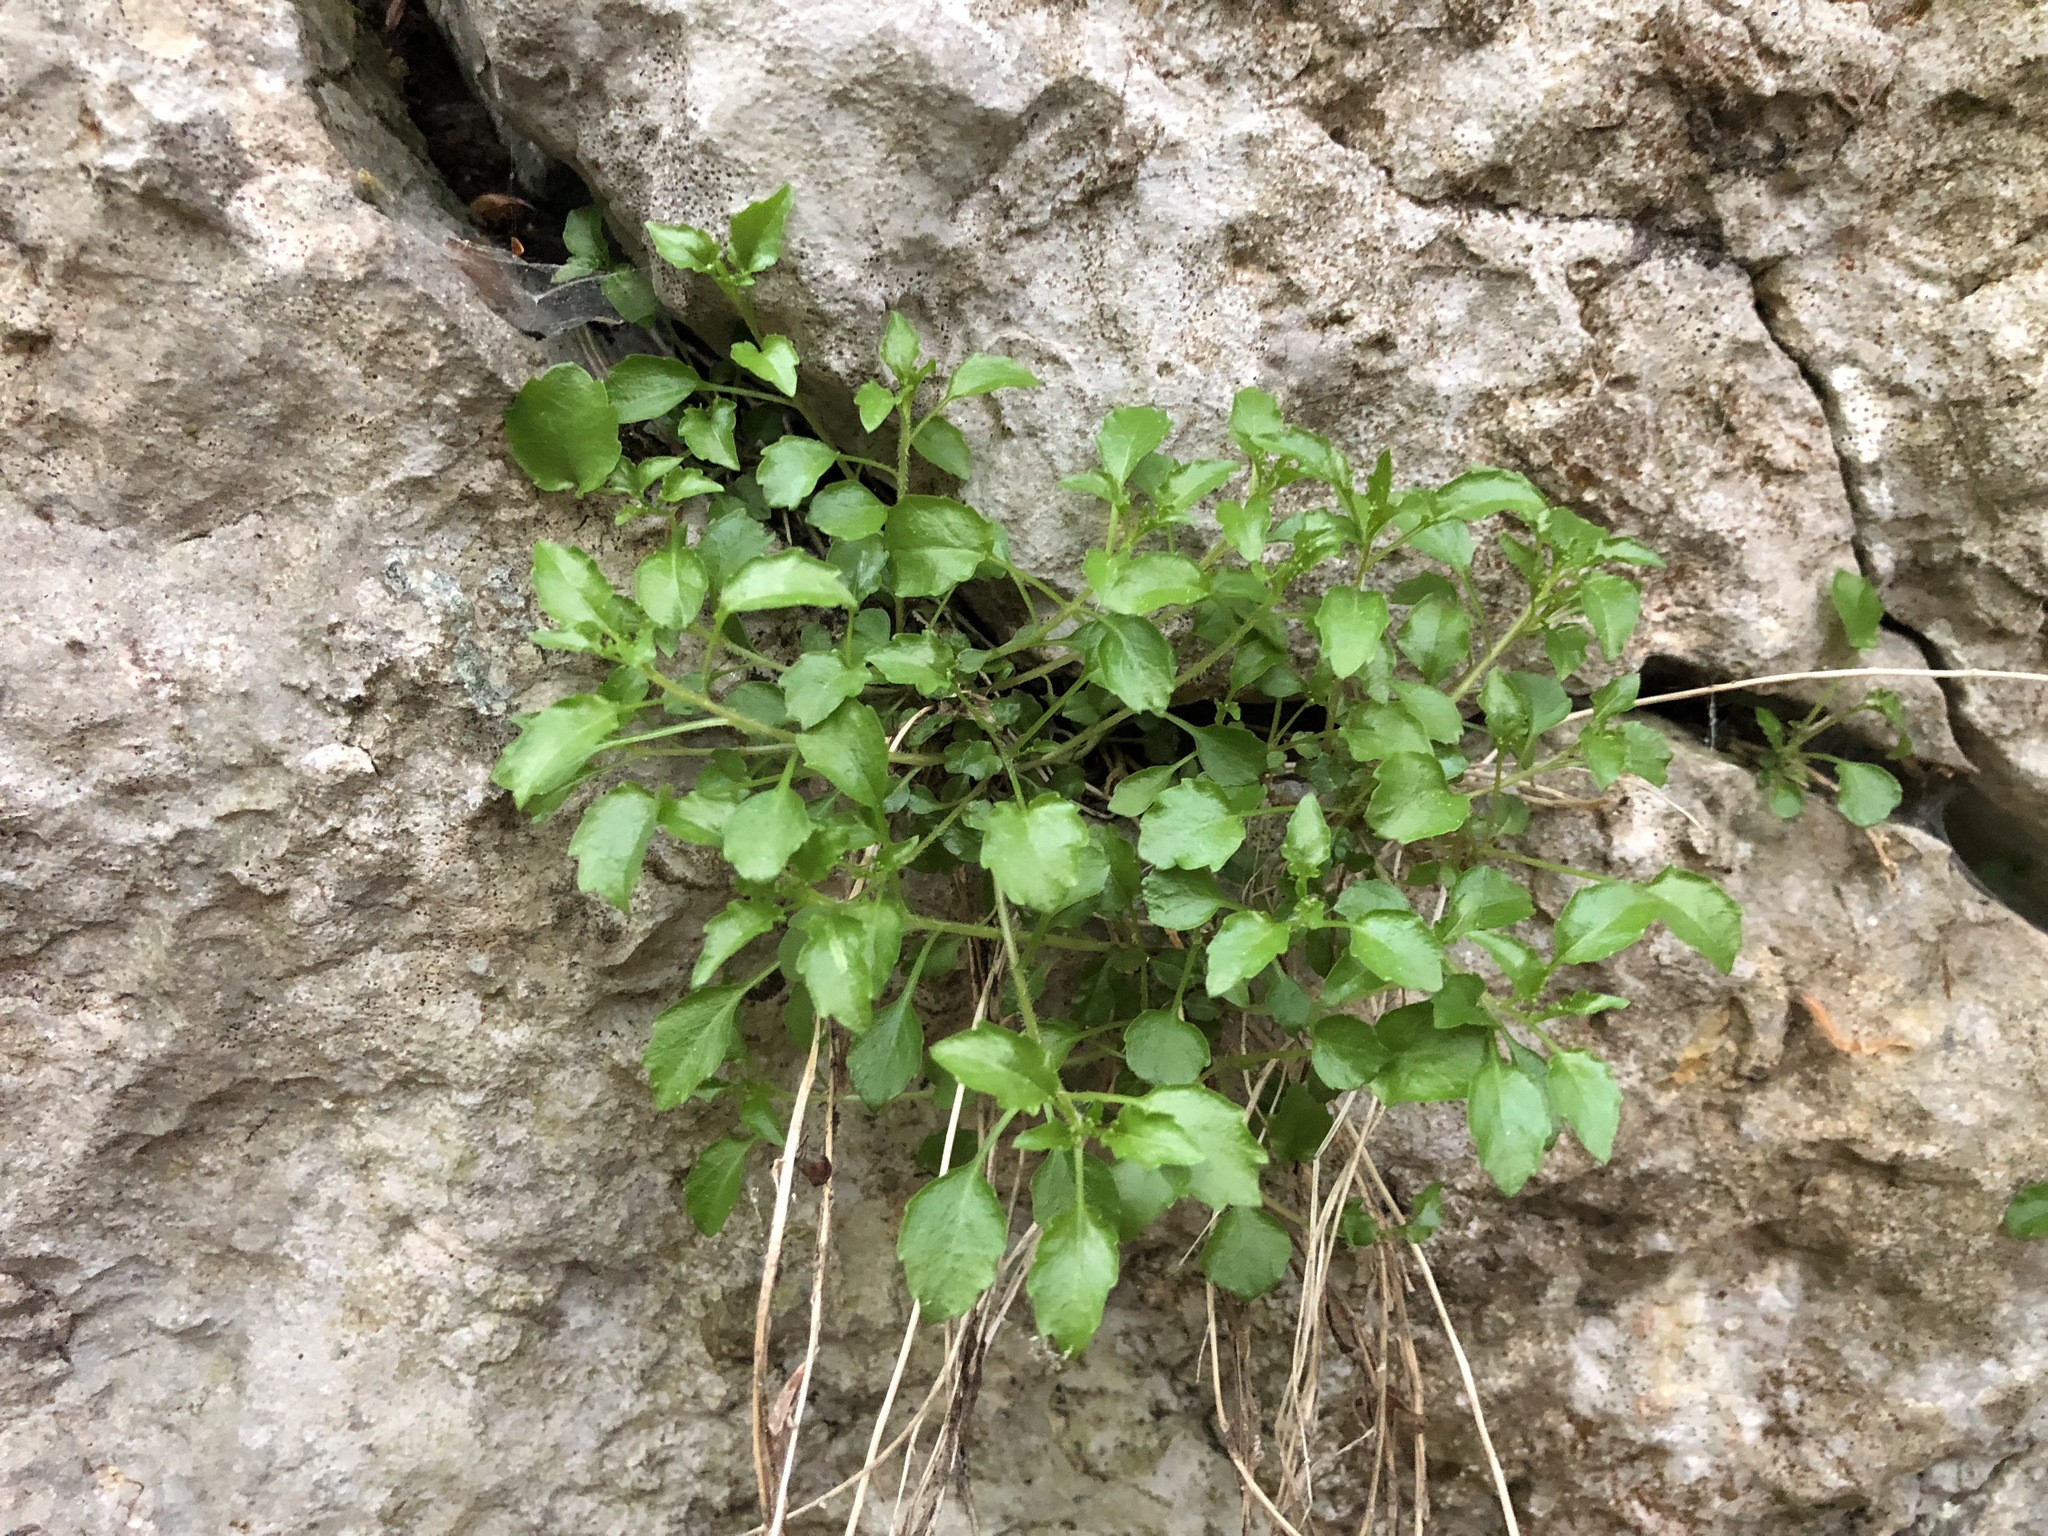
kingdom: Plantae
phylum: Tracheophyta
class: Magnoliopsida
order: Asterales
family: Campanulaceae
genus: Campanula
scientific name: Campanula rotundifolia
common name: Harebell
